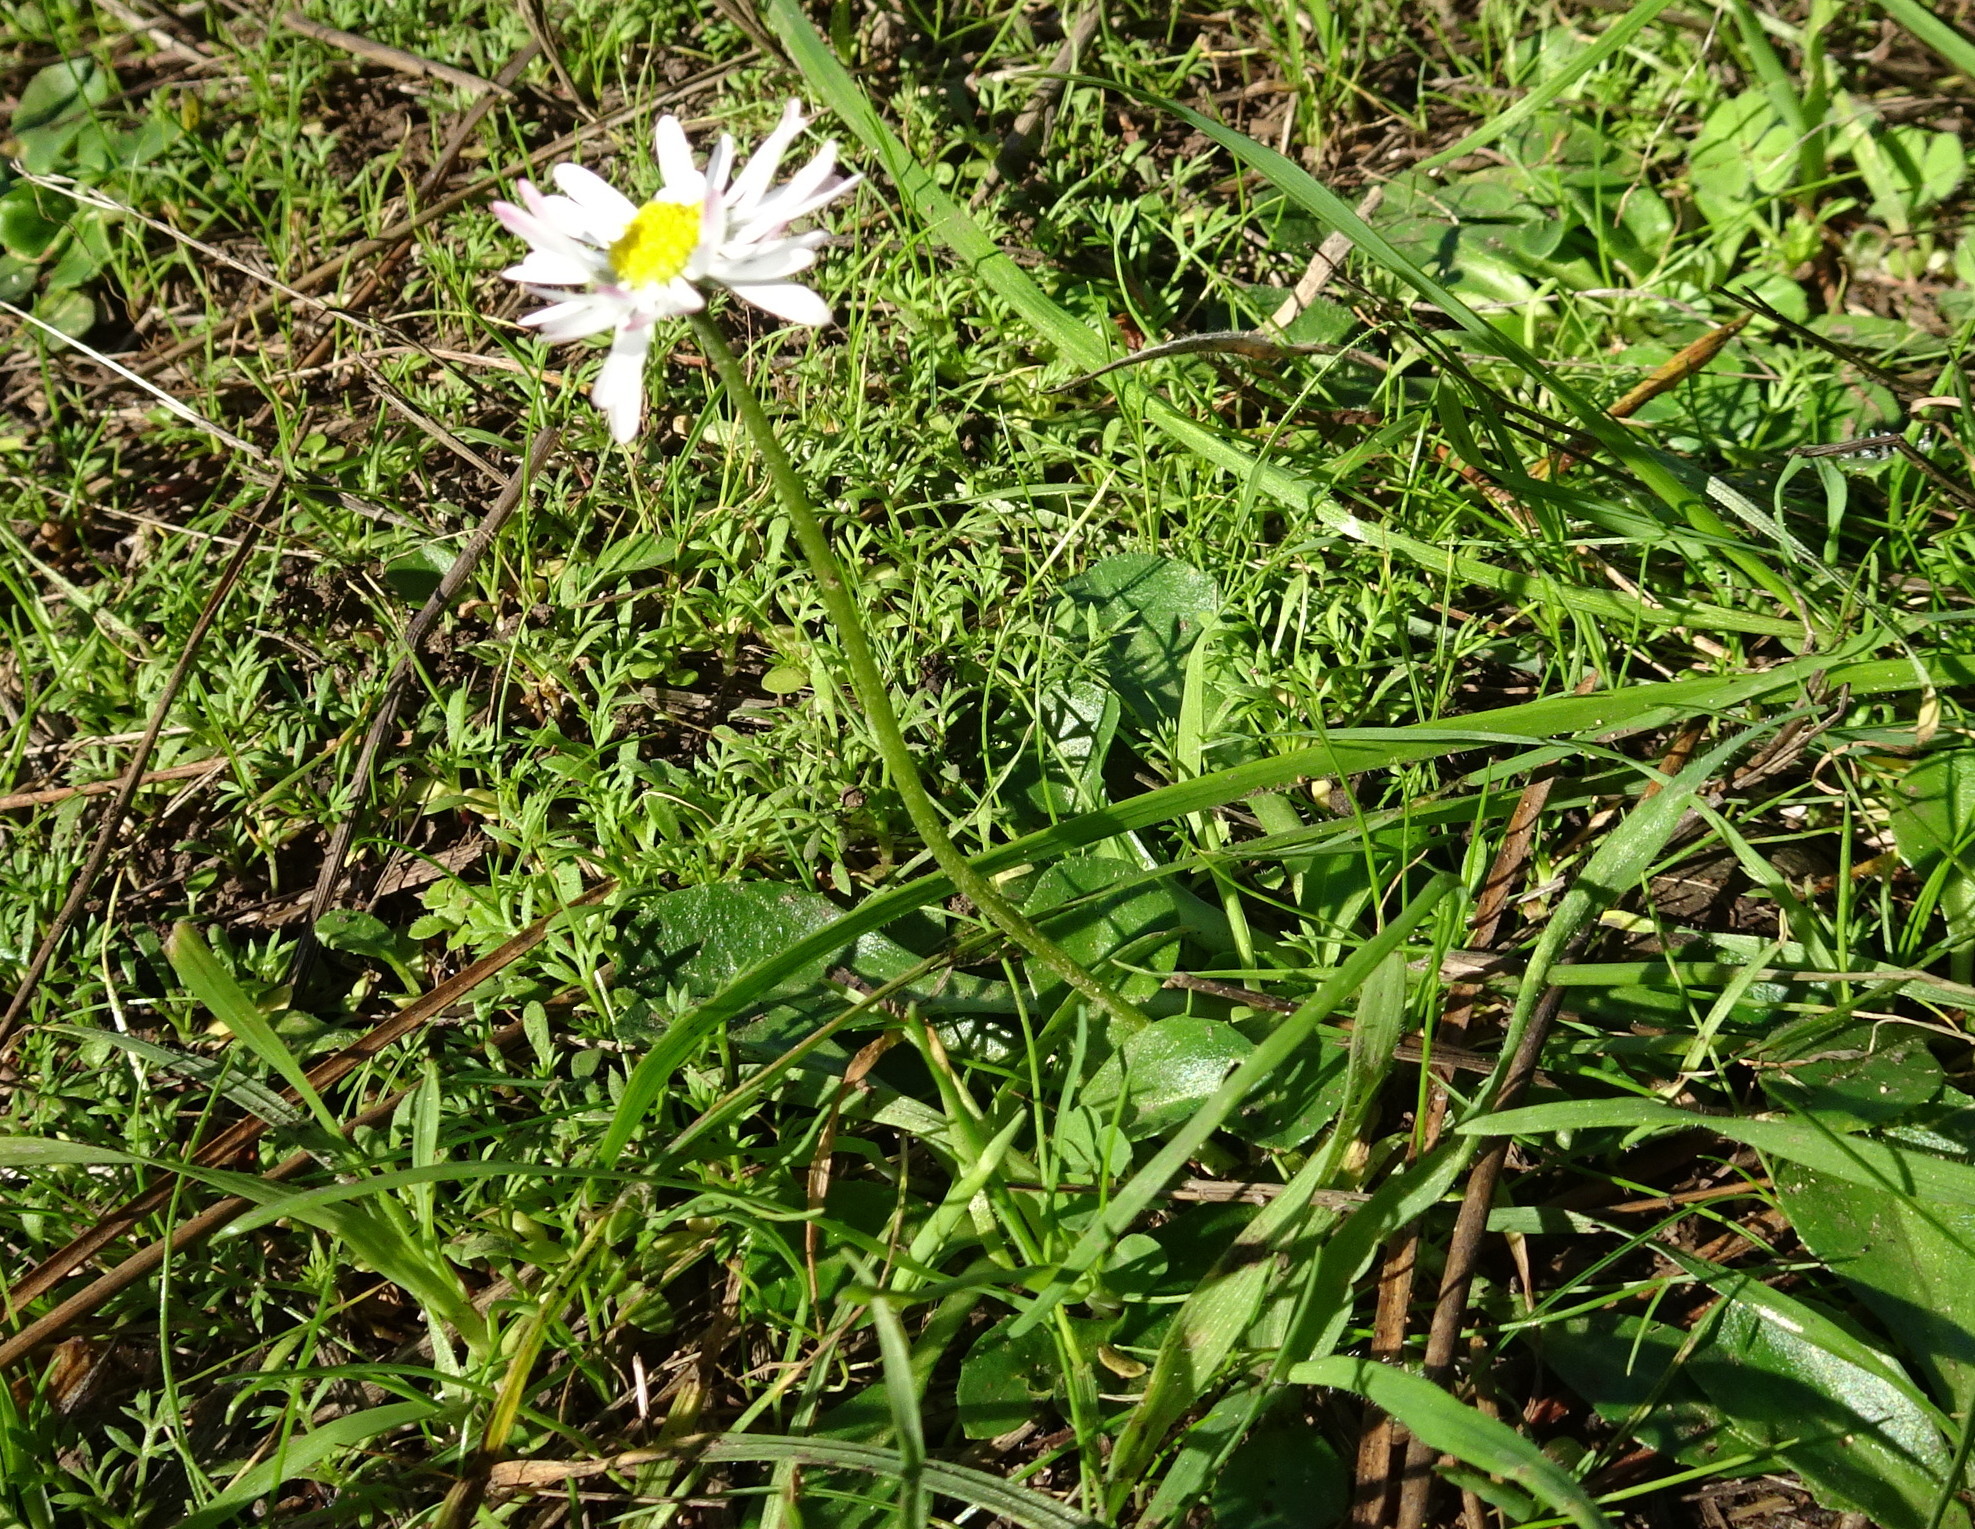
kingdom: Plantae
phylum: Tracheophyta
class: Magnoliopsida
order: Asterales
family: Asteraceae
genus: Bellis
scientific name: Bellis perennis
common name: Lawndaisy
